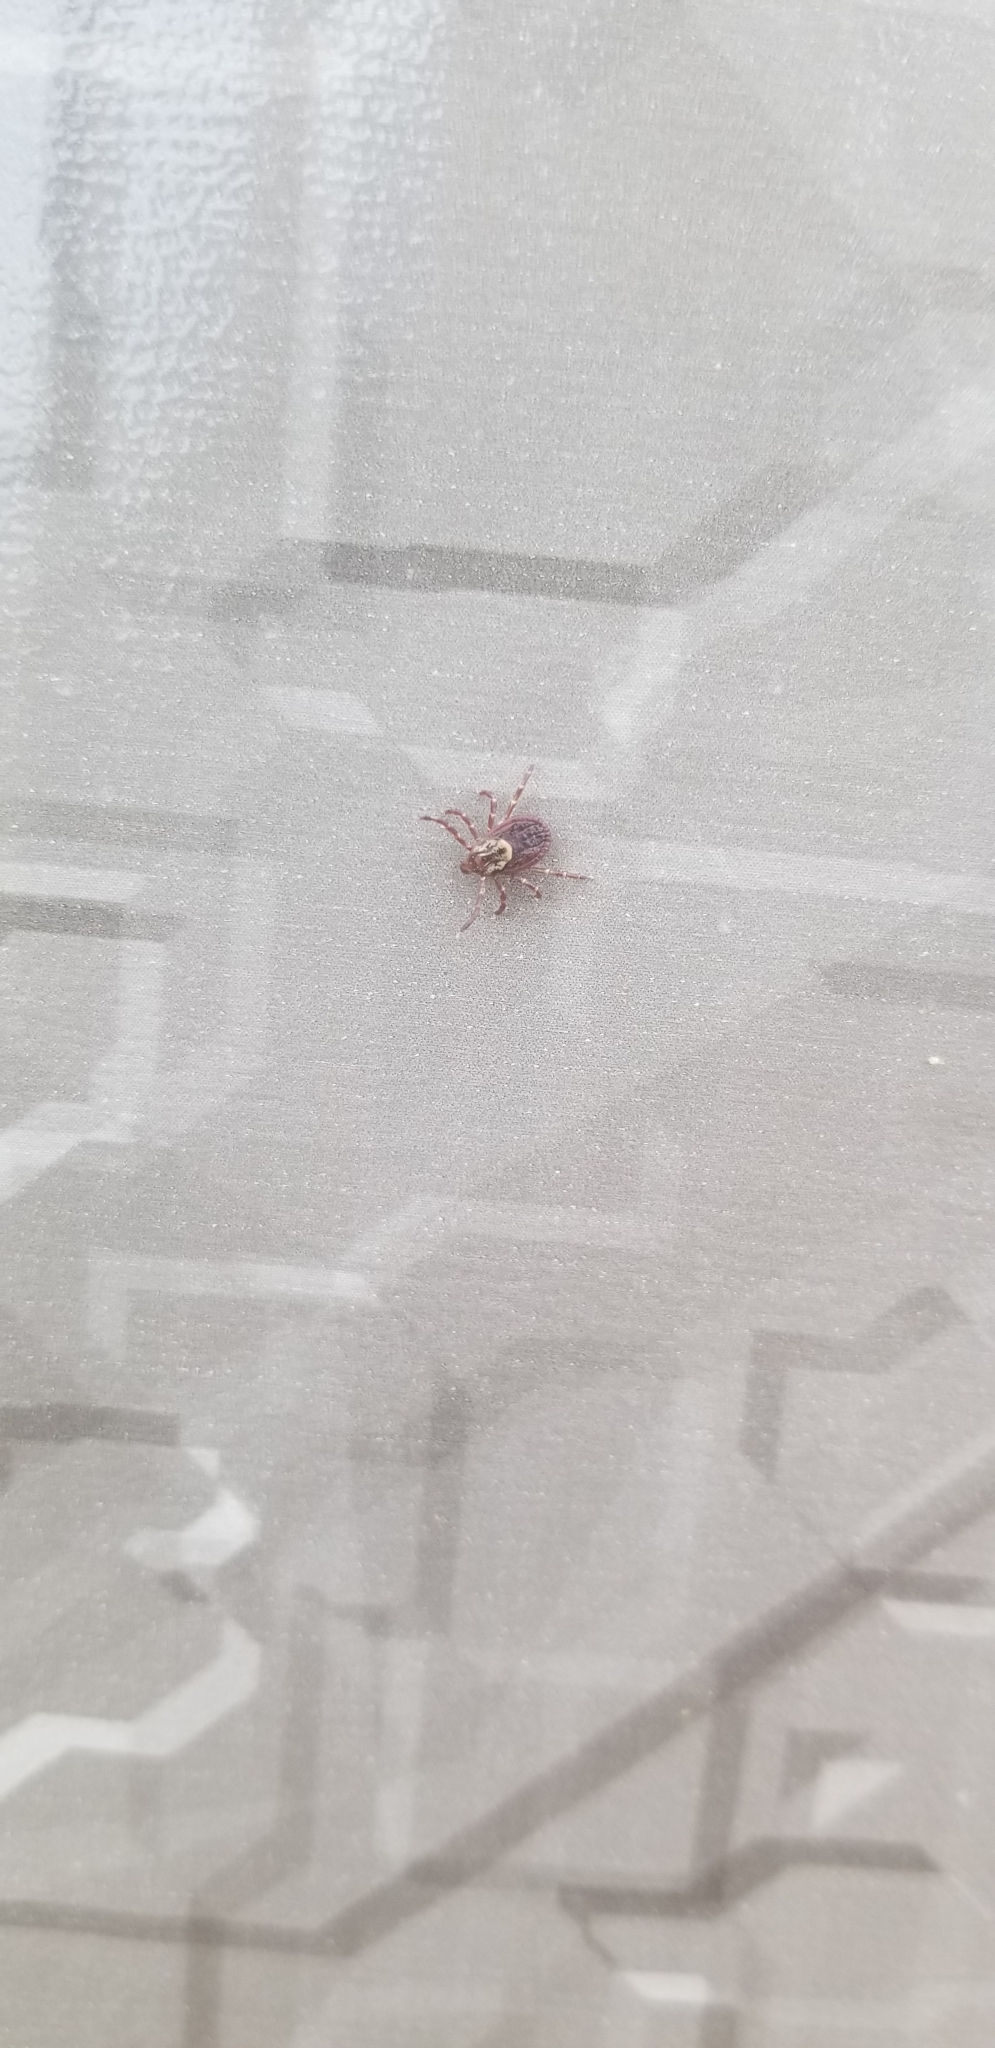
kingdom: Animalia
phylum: Arthropoda
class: Arachnida
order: Ixodida
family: Ixodidae
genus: Dermacentor
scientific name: Dermacentor variabilis
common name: American dog tick
